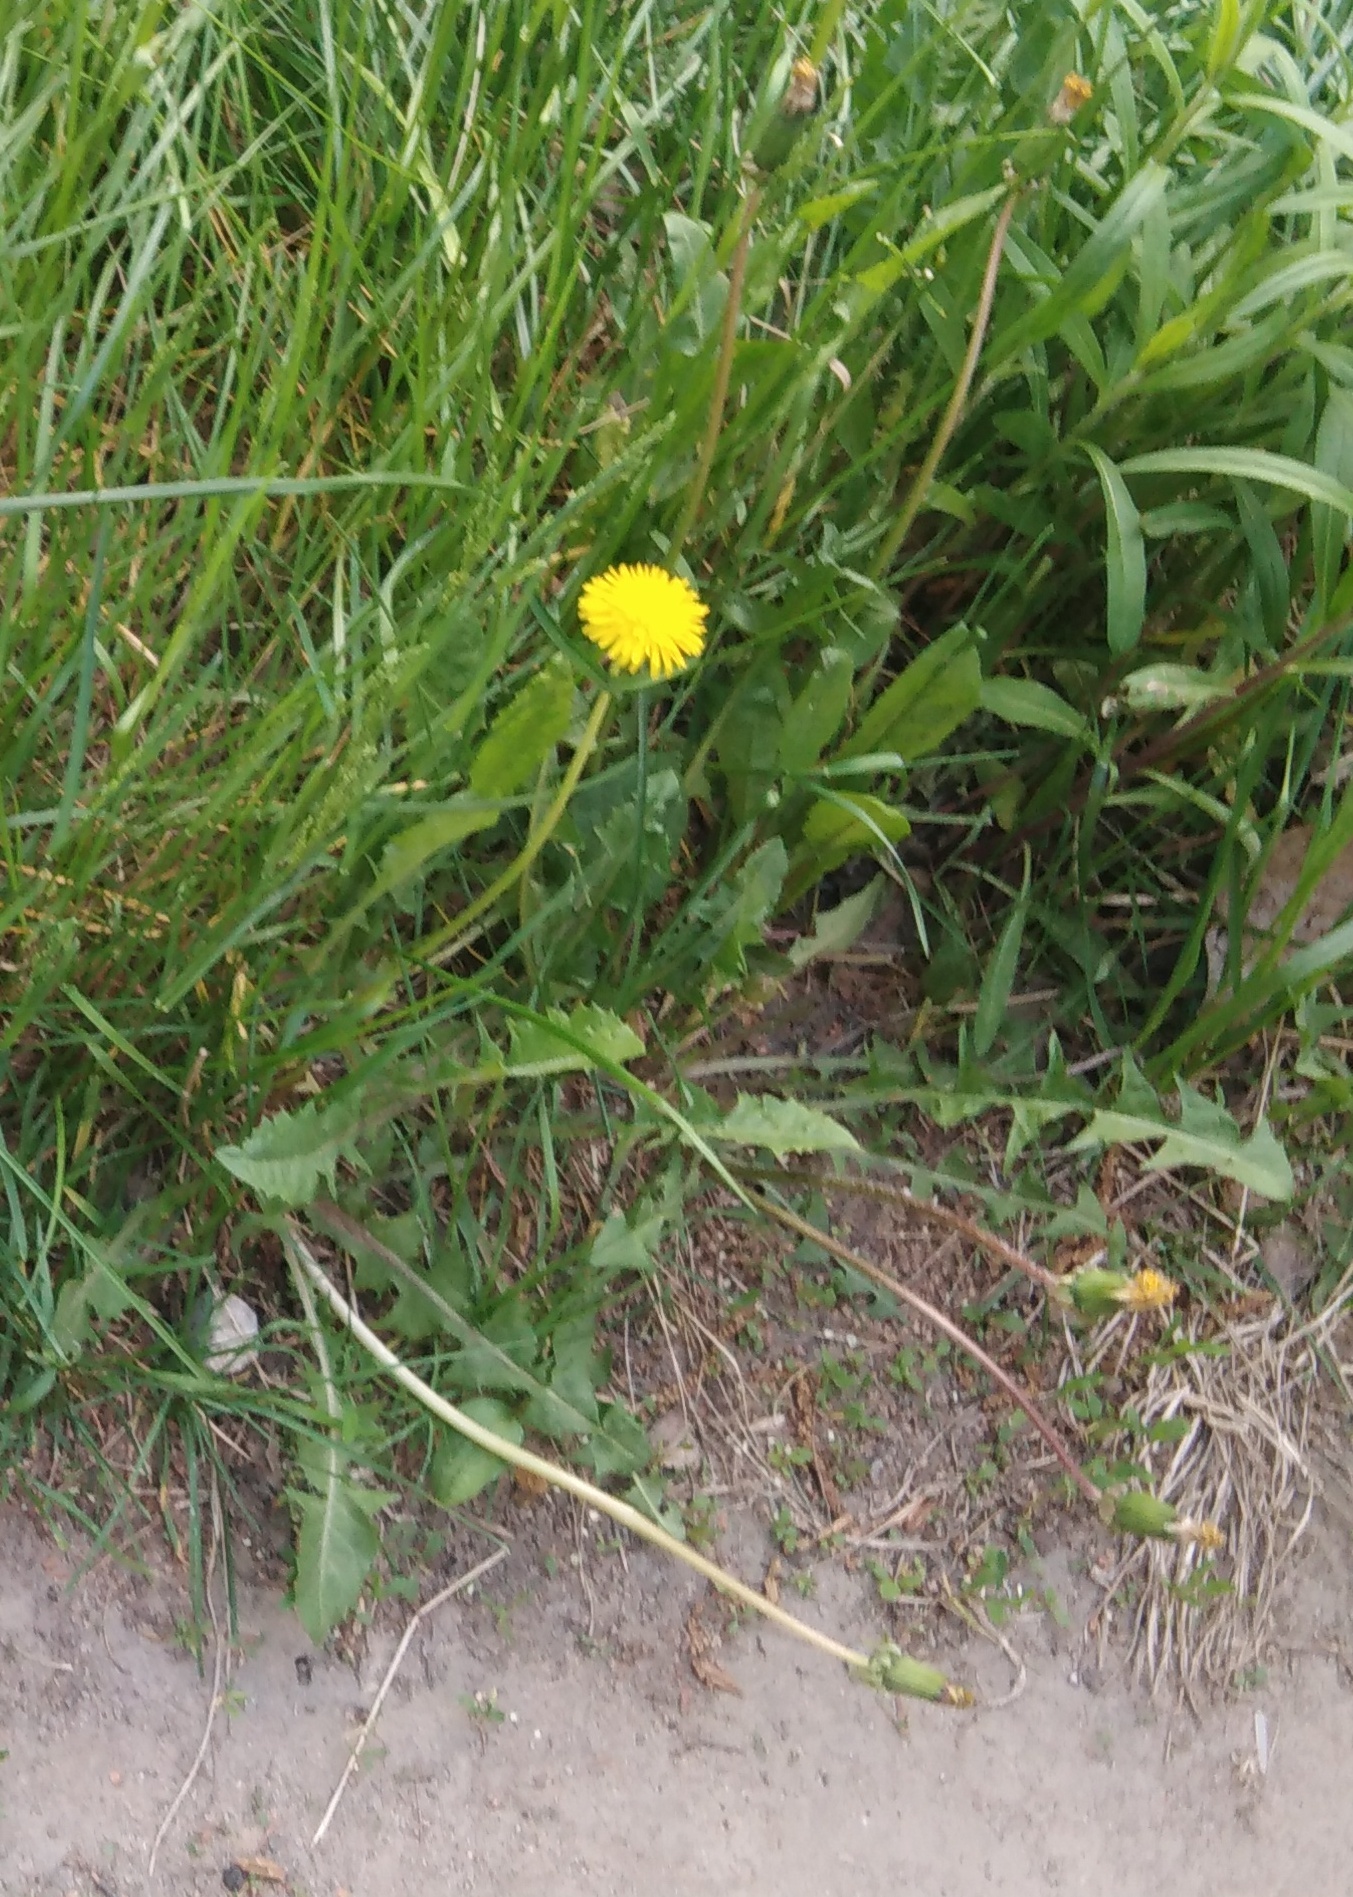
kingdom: Plantae
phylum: Tracheophyta
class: Magnoliopsida
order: Asterales
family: Asteraceae
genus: Taraxacum
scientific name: Taraxacum officinale
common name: Common dandelion
